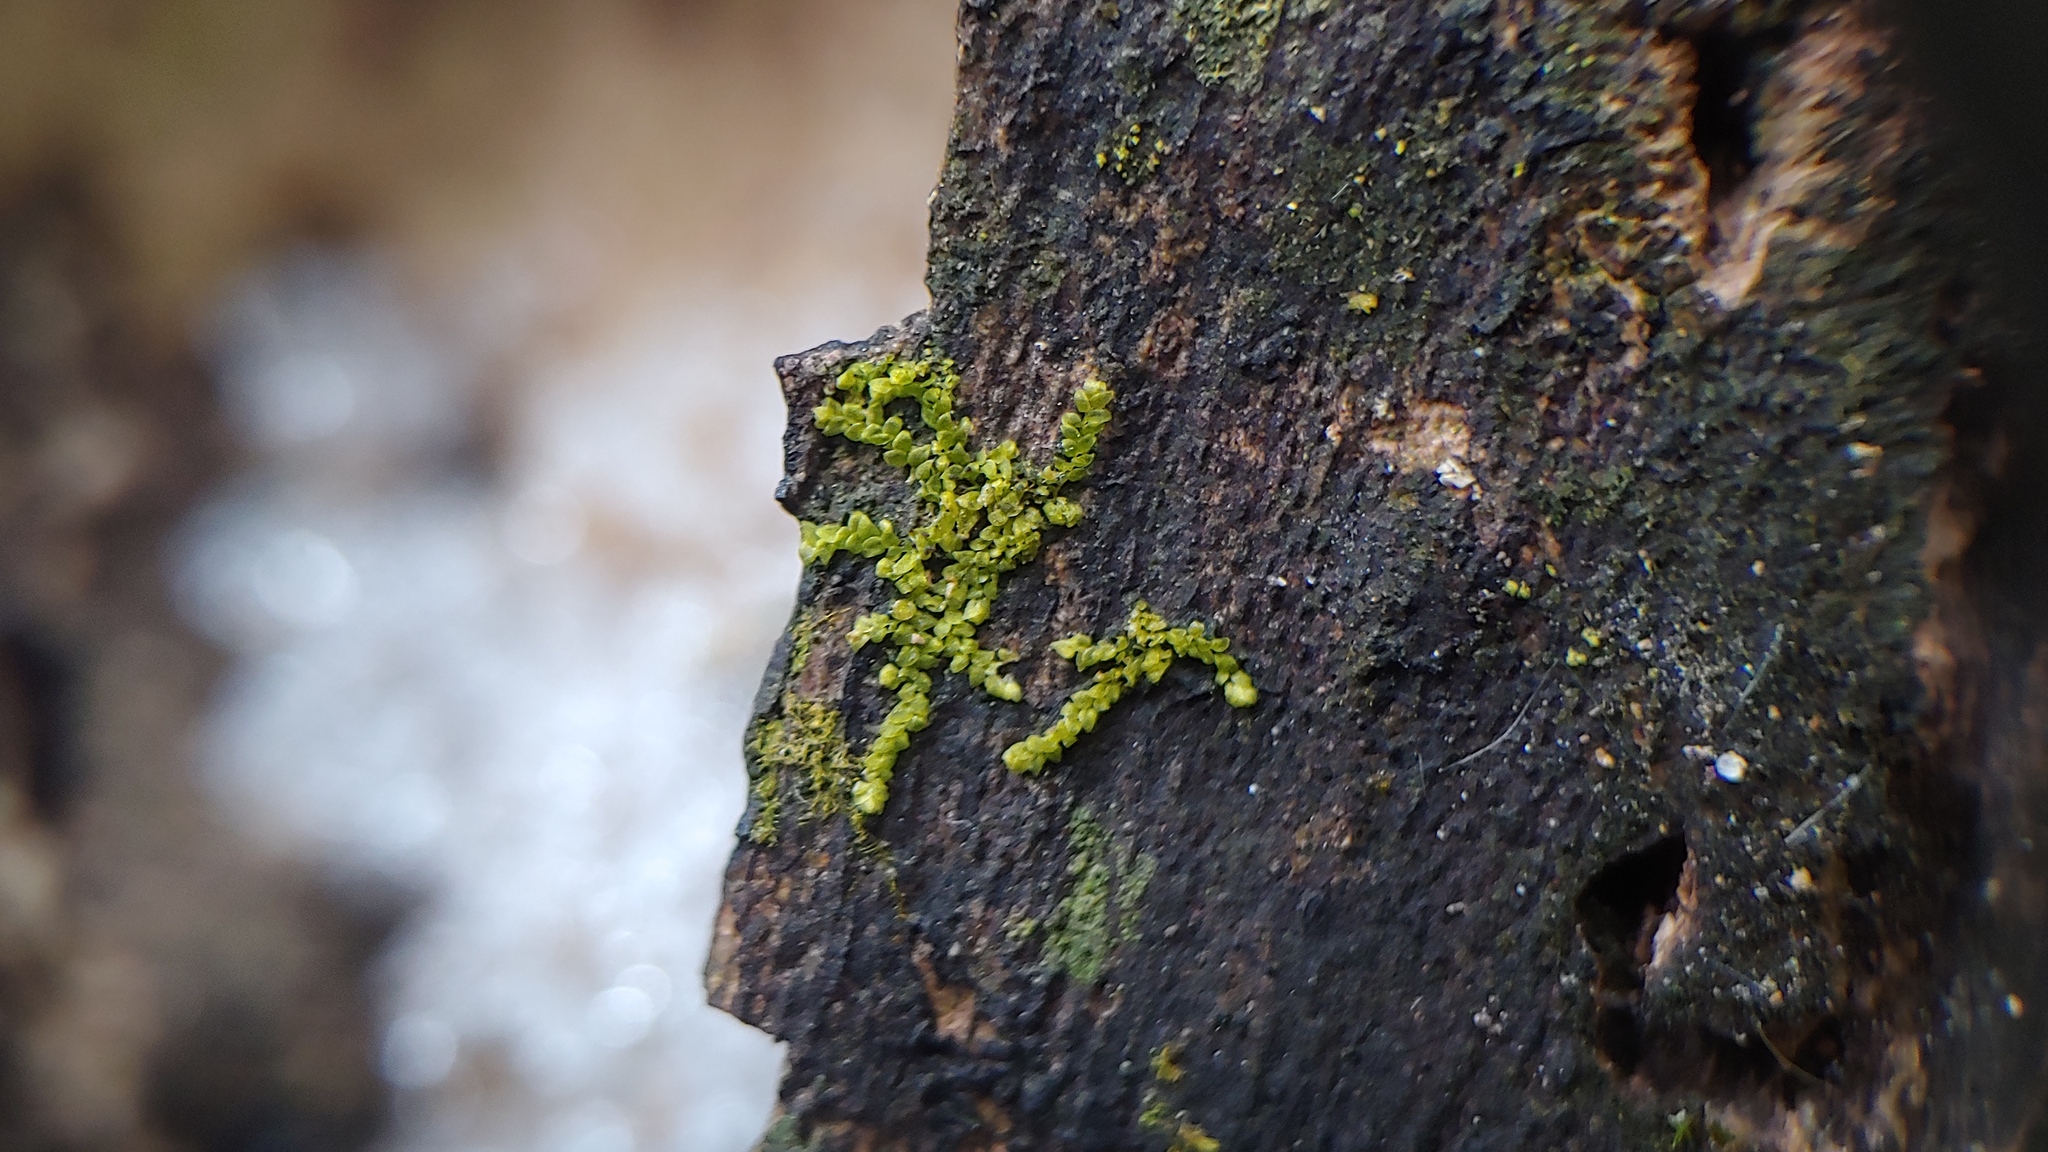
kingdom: Plantae
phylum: Marchantiophyta
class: Jungermanniopsida
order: Porellales
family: Lejeuneaceae
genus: Cololejeunea
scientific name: Cololejeunea biddlecomiae
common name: Biddlecome s pouncewort
